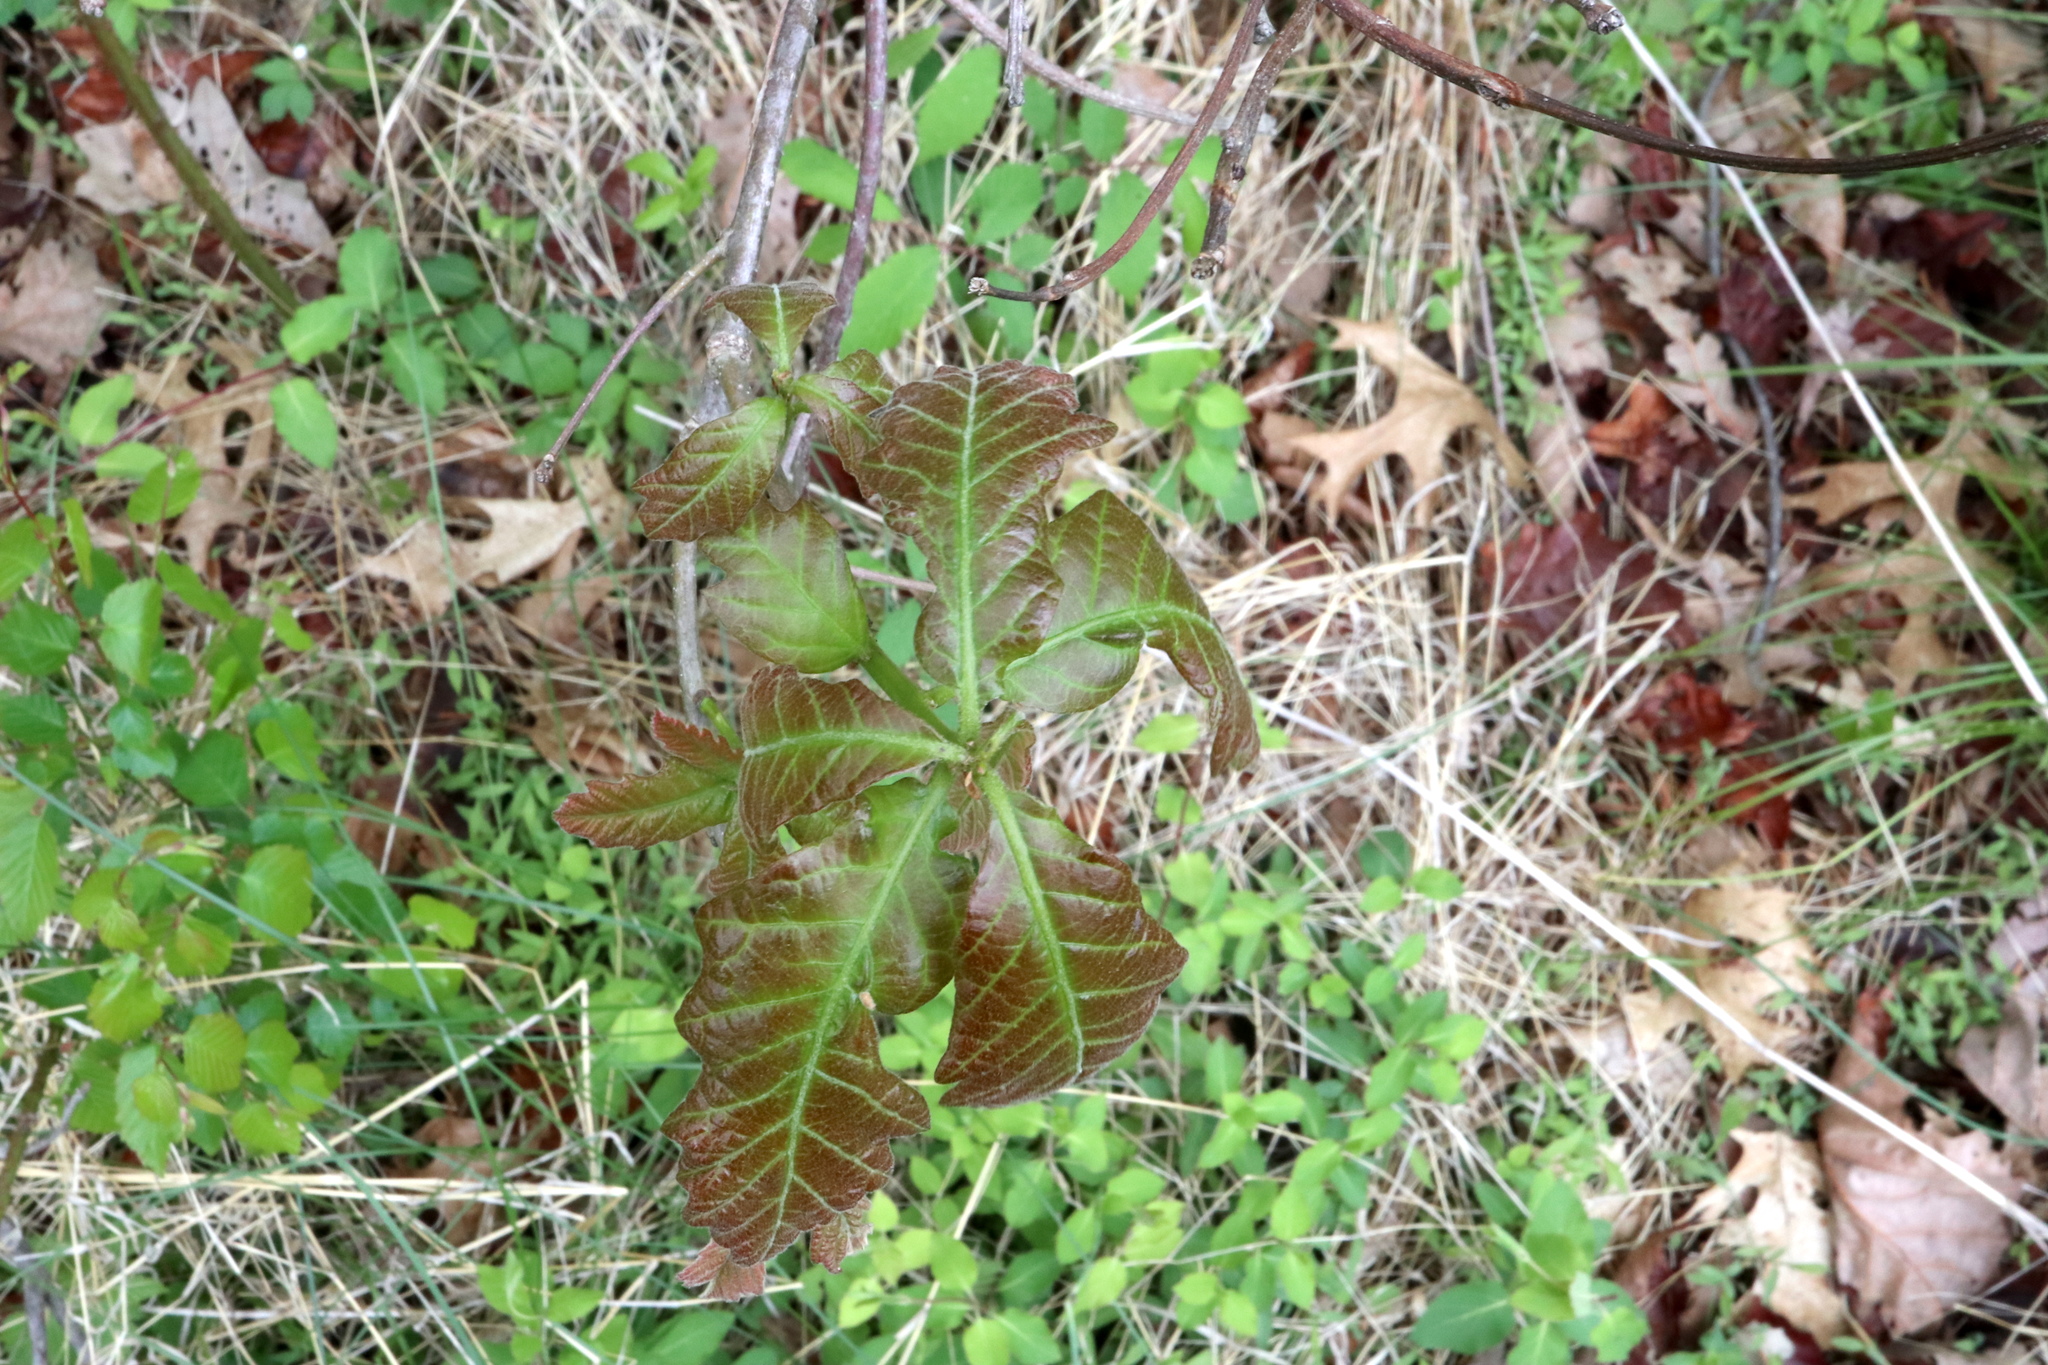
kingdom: Plantae
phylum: Tracheophyta
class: Magnoliopsida
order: Fagales
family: Fagaceae
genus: Quercus
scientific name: Quercus bicolor
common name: Swamp white oak
